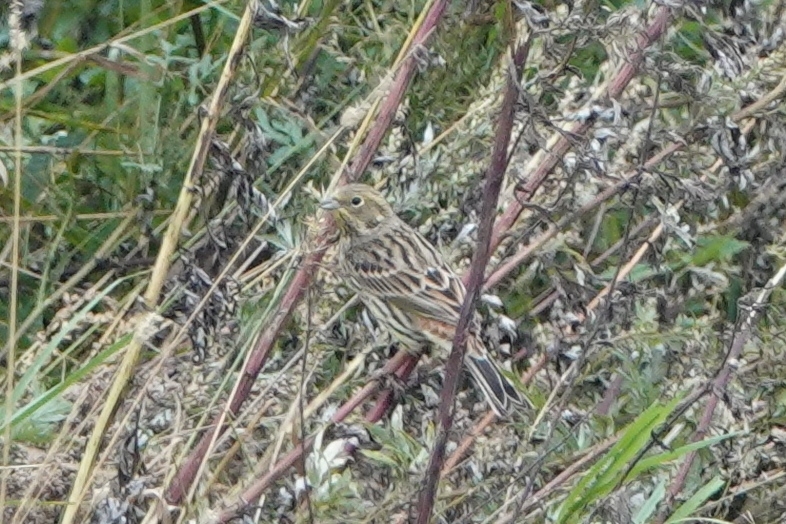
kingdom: Animalia
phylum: Chordata
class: Aves
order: Passeriformes
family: Emberizidae
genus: Emberiza
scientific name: Emberiza citrinella
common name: Yellowhammer
